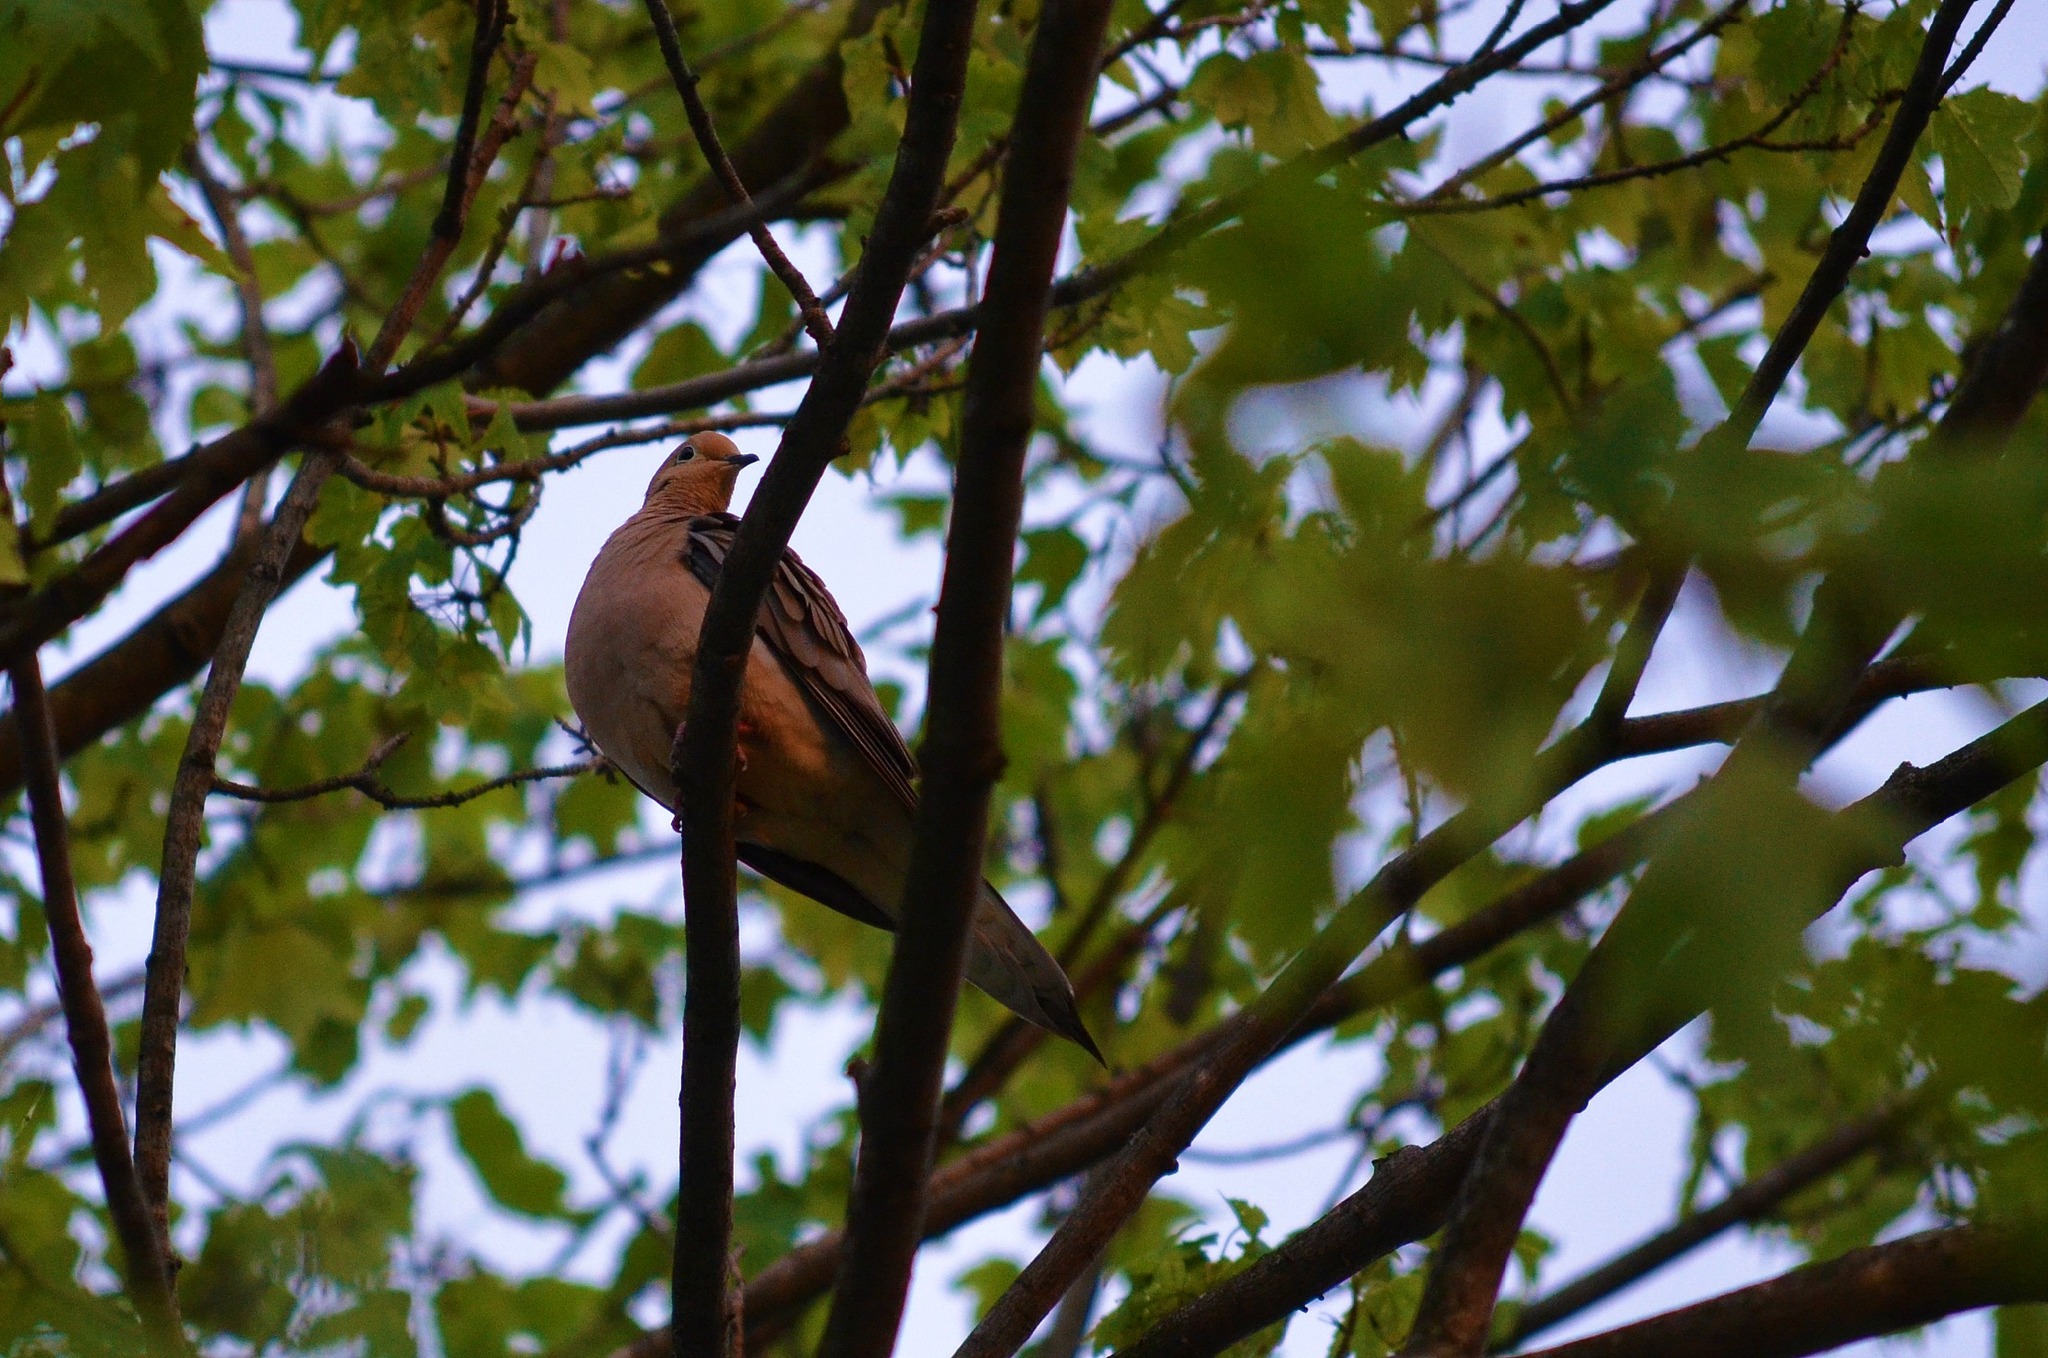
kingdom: Animalia
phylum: Chordata
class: Aves
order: Columbiformes
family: Columbidae
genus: Zenaida
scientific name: Zenaida macroura
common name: Mourning dove
